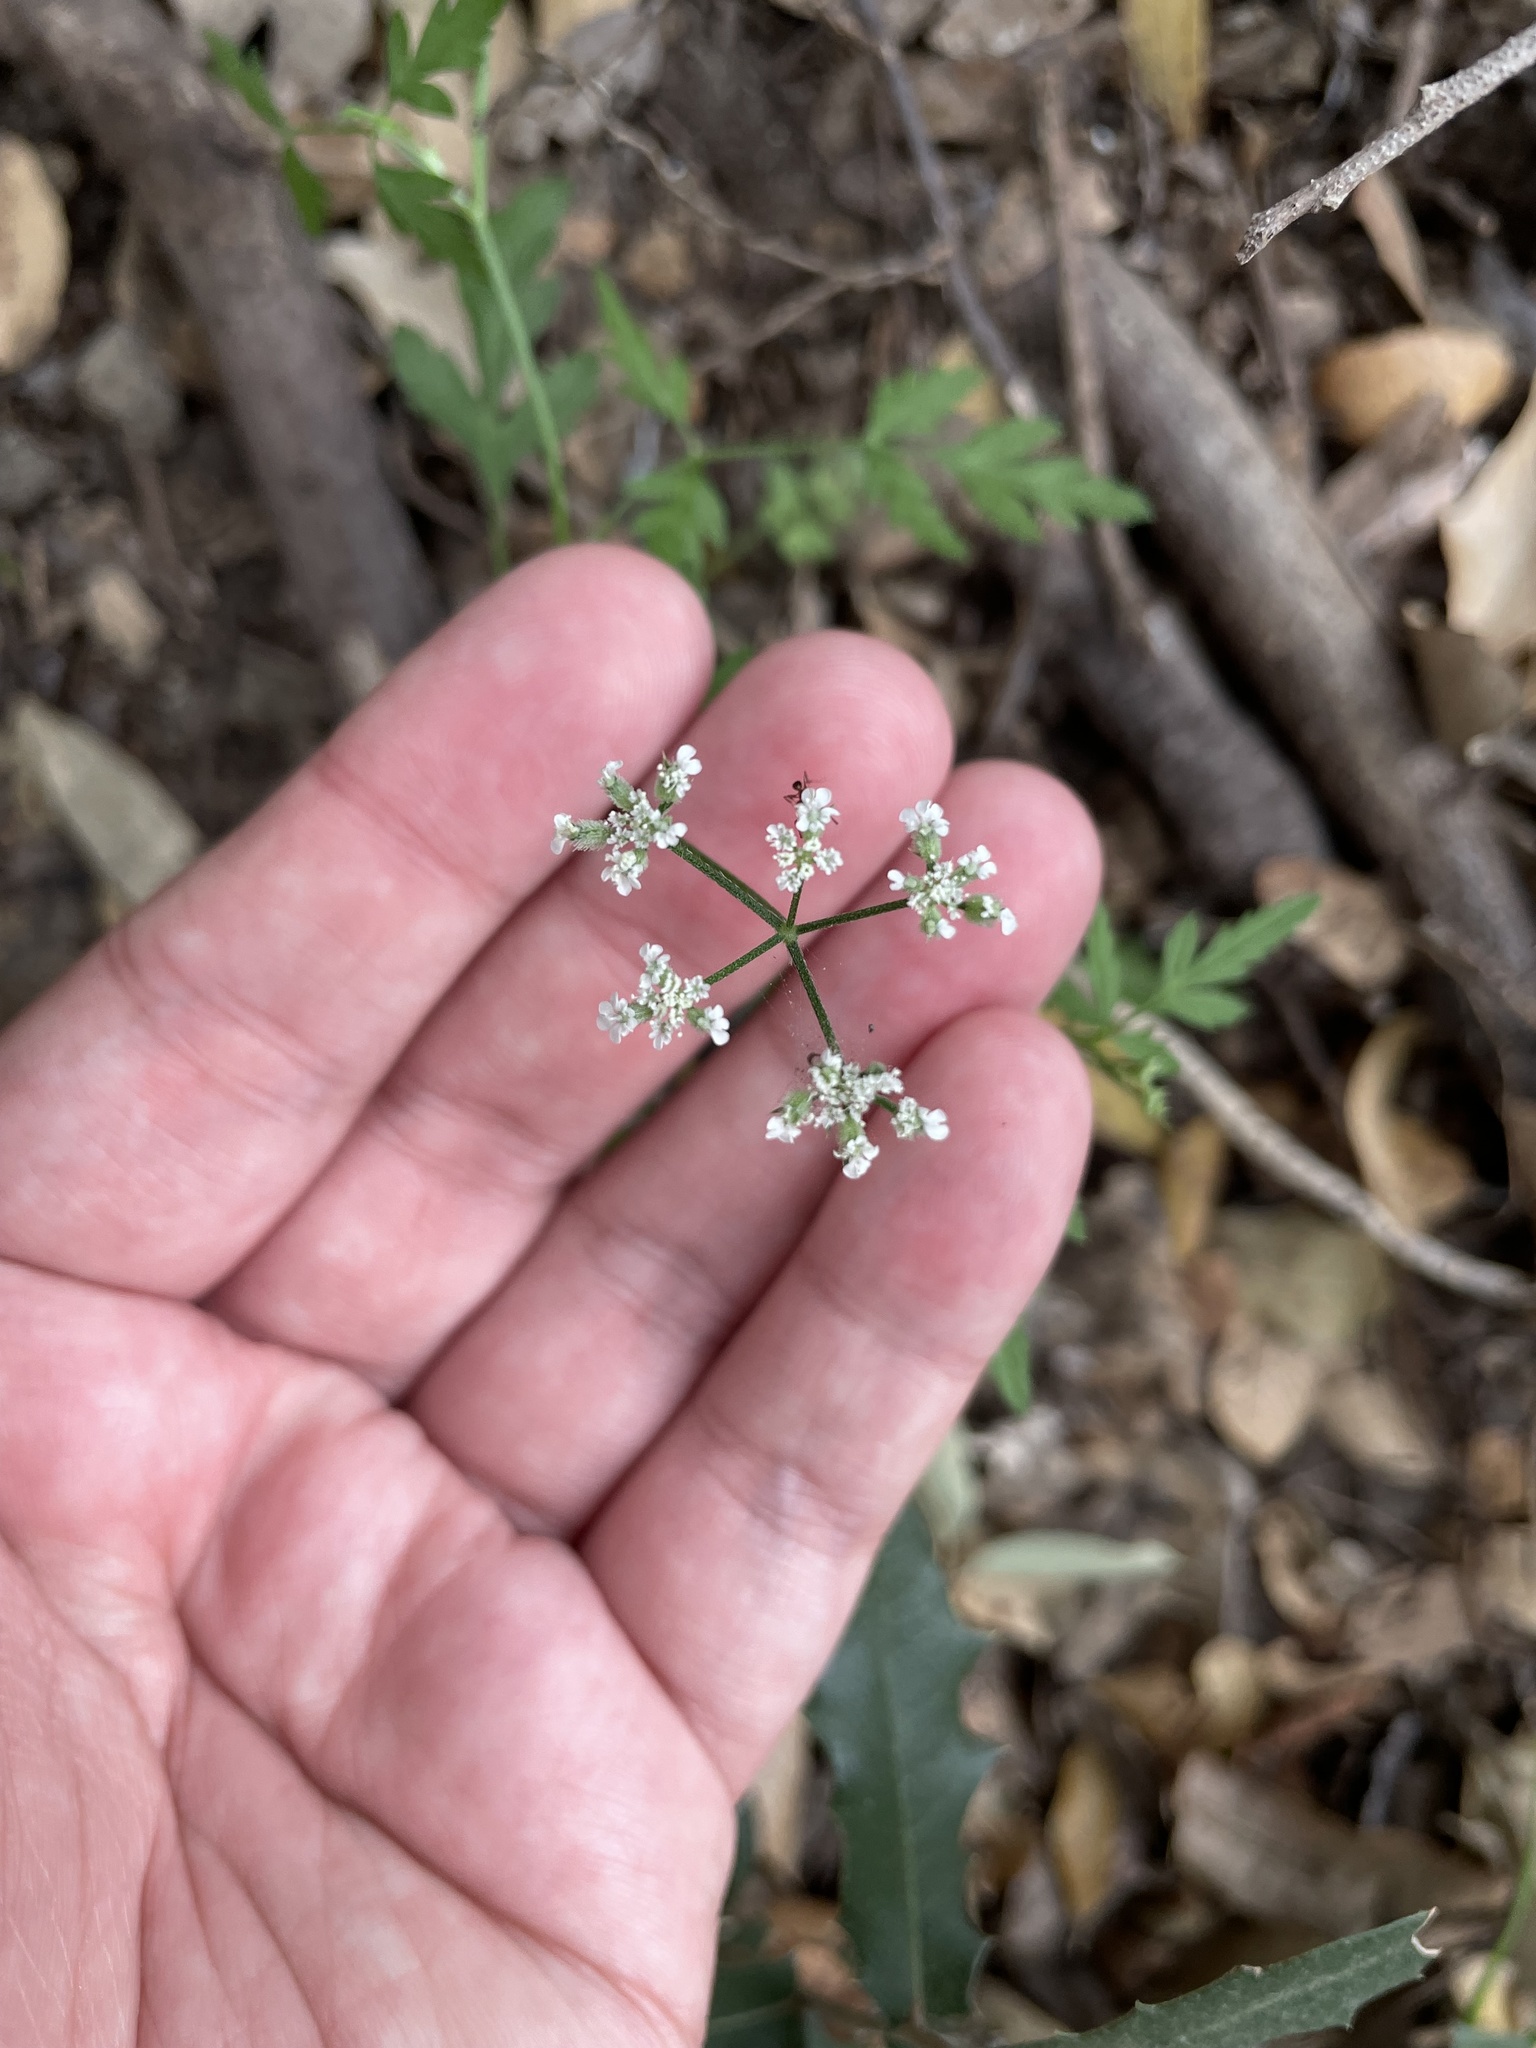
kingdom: Plantae
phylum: Tracheophyta
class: Magnoliopsida
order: Apiales
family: Apiaceae
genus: Torilis
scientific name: Torilis arvensis
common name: Spreading hedge-parsley
